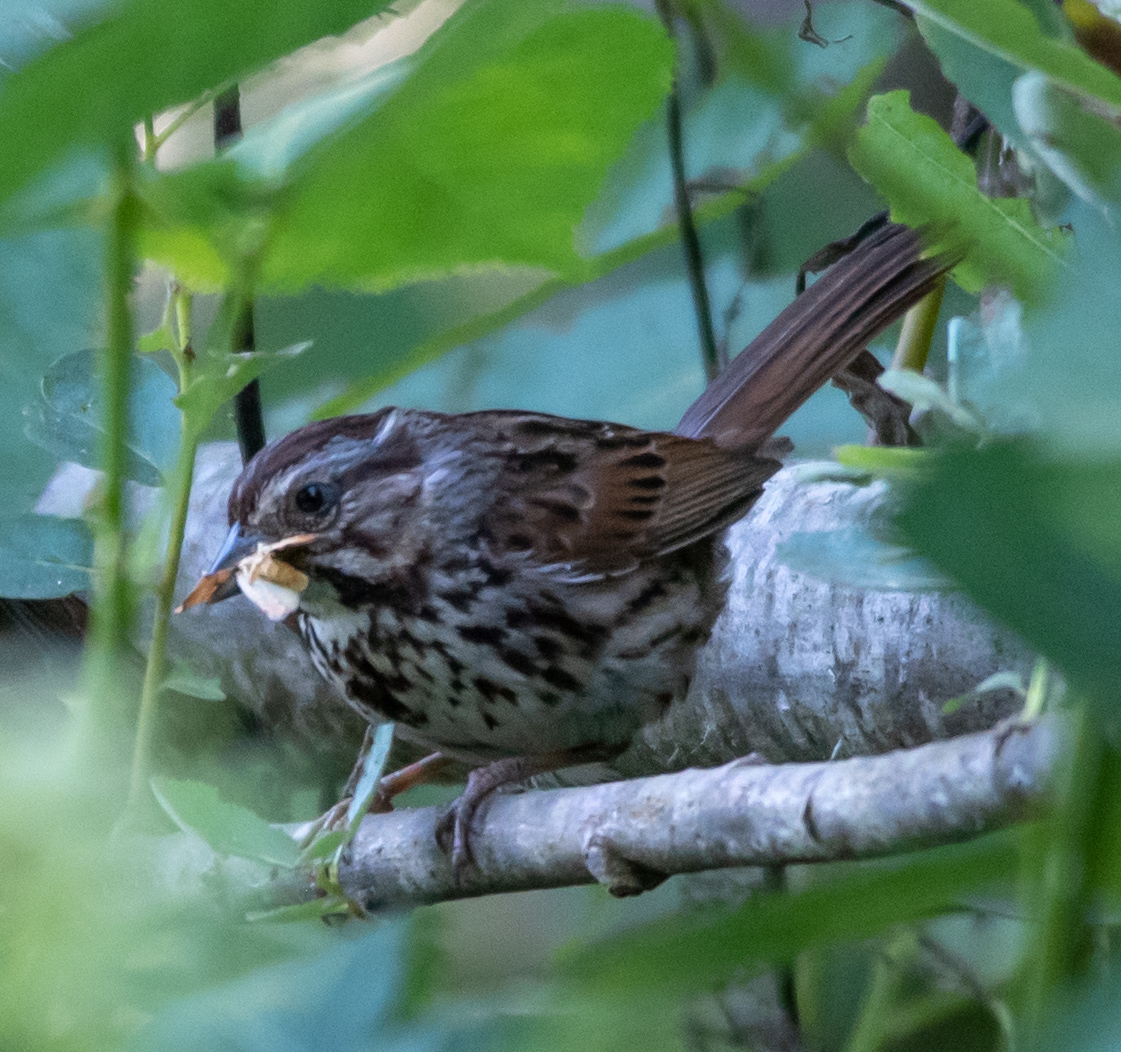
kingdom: Animalia
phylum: Chordata
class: Aves
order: Passeriformes
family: Passerellidae
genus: Melospiza
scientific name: Melospiza melodia
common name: Song sparrow
